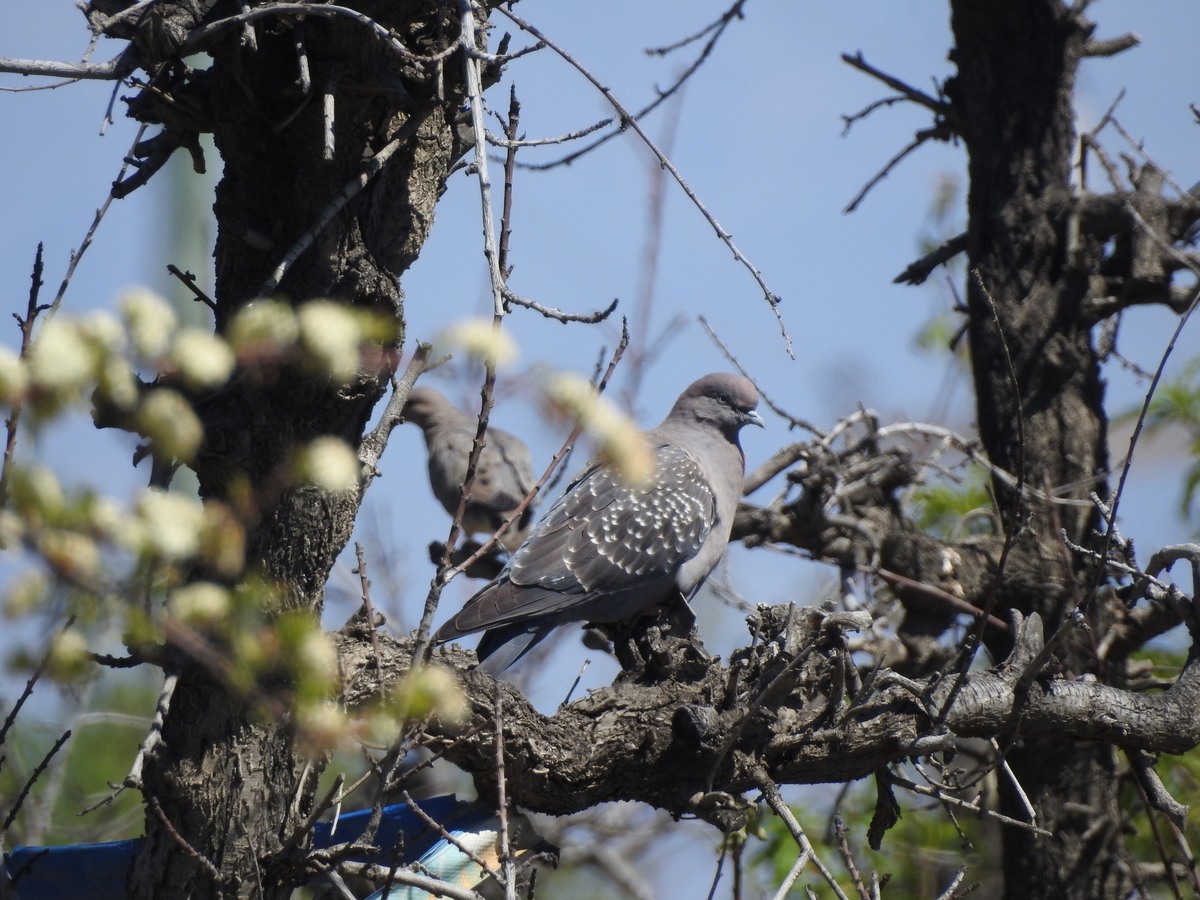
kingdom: Animalia
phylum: Chordata
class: Aves
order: Columbiformes
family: Columbidae
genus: Patagioenas
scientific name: Patagioenas maculosa
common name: Spot-winged pigeon
